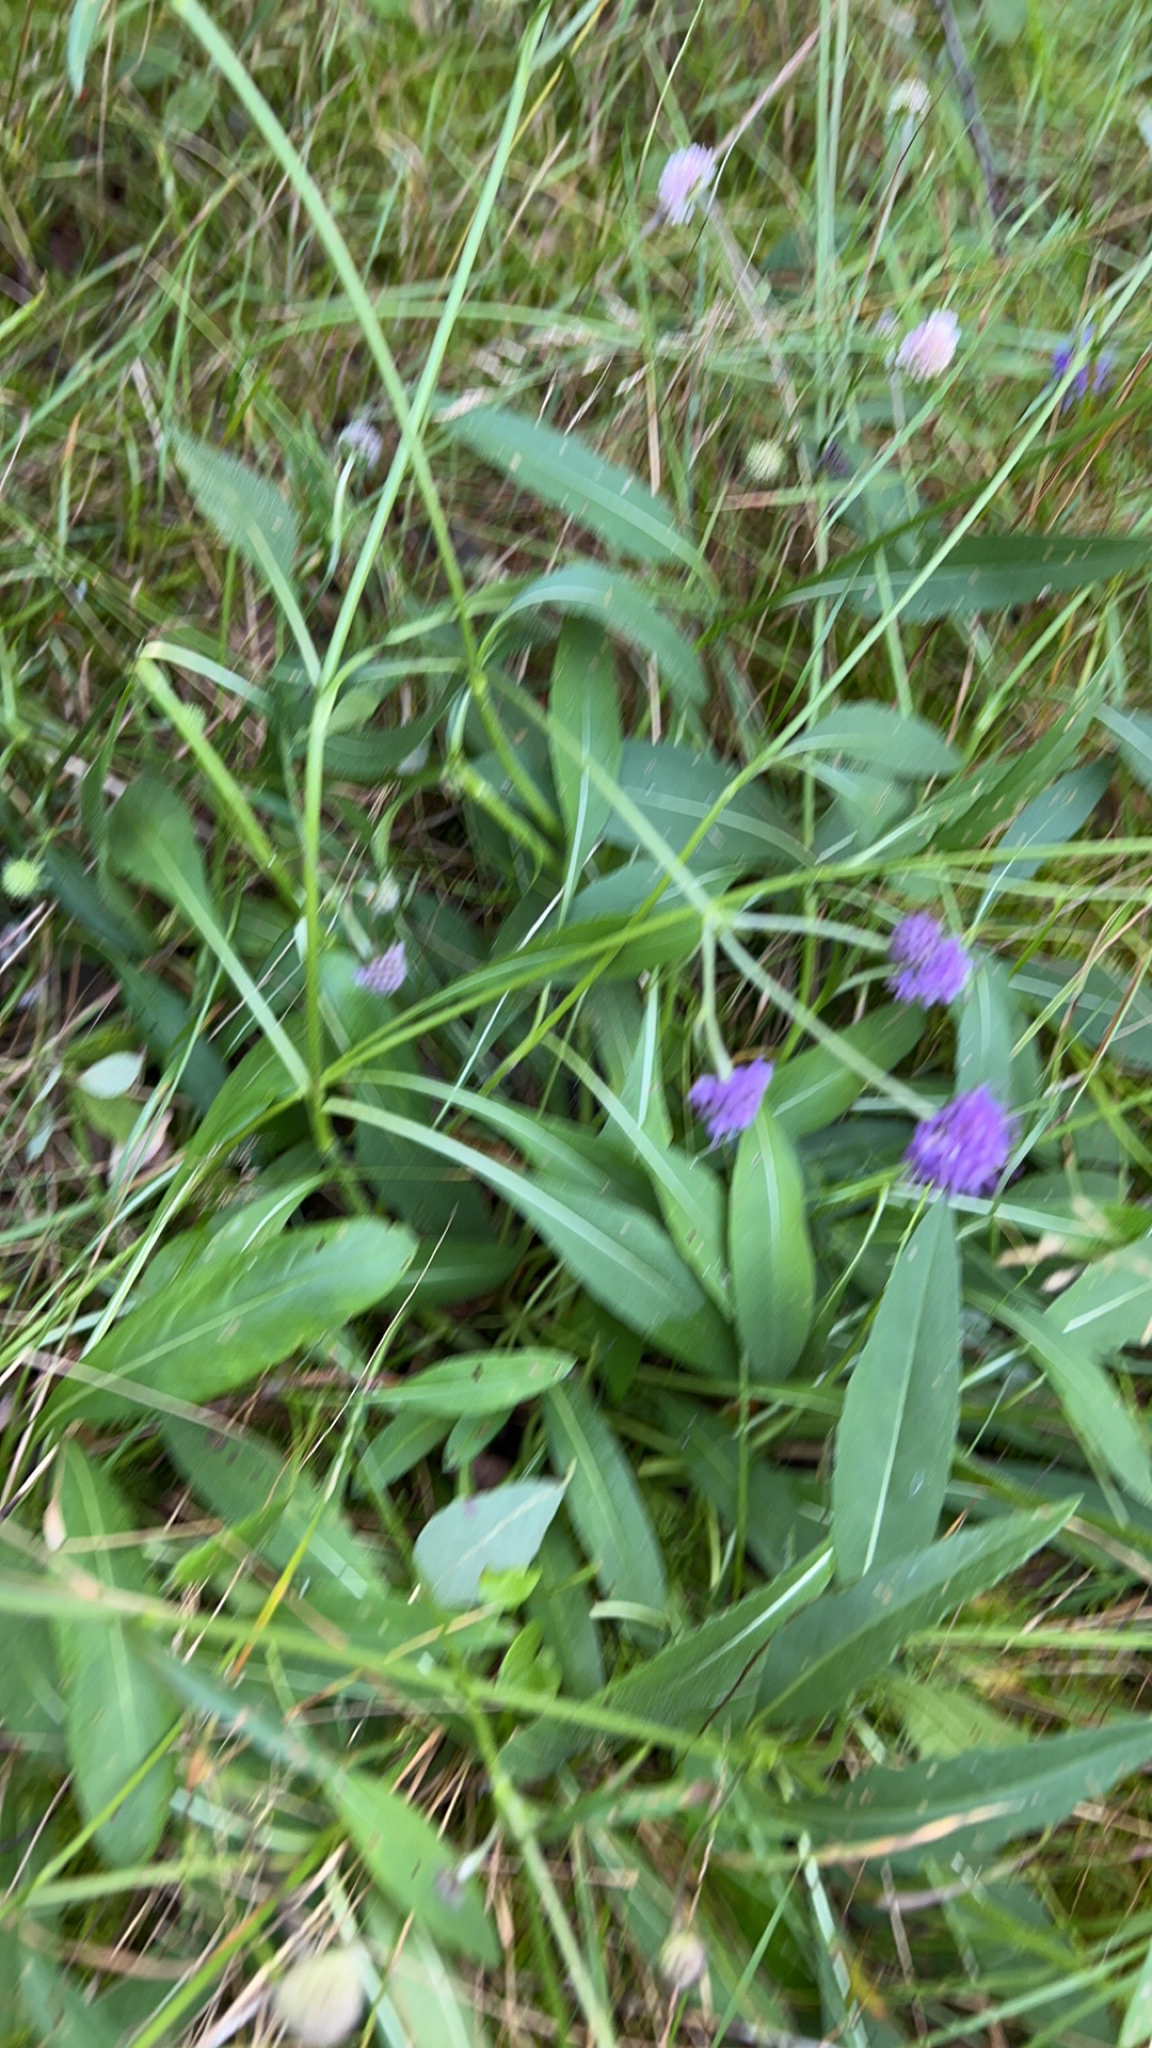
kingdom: Plantae
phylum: Tracheophyta
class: Magnoliopsida
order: Dipsacales
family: Caprifoliaceae
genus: Succisa
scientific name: Succisa pratensis
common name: Devil's-bit
